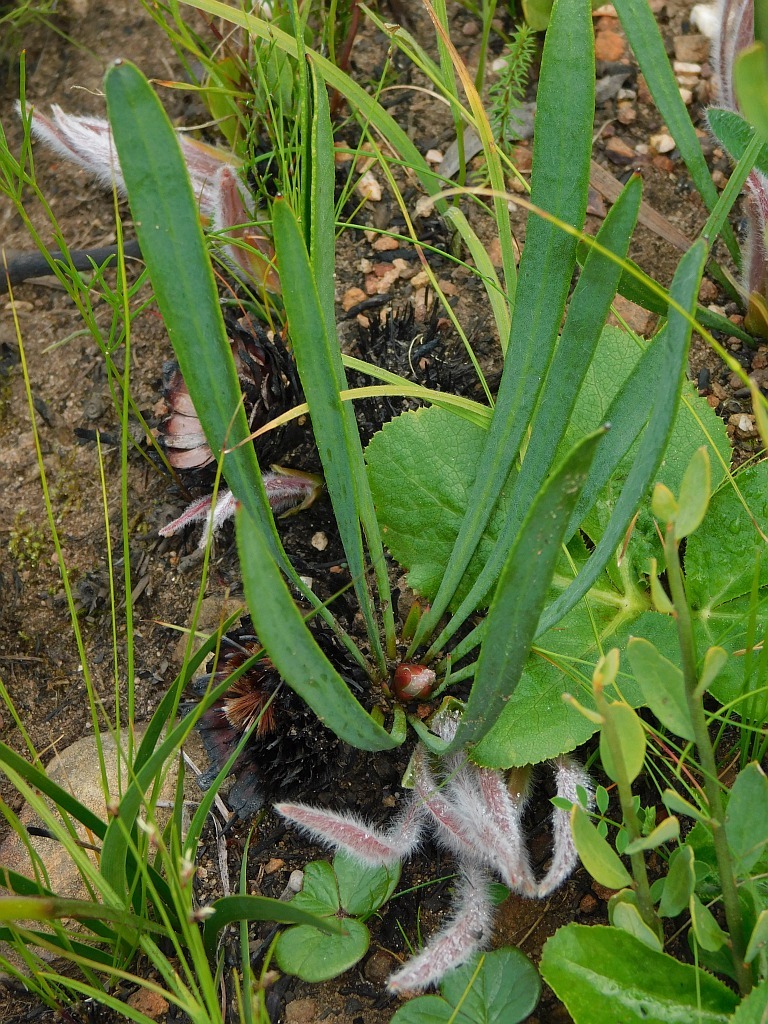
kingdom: Plantae
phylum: Tracheophyta
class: Magnoliopsida
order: Proteales
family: Proteaceae
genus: Protea
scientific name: Protea scabra
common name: Sandpaper-leaf sugarbush
